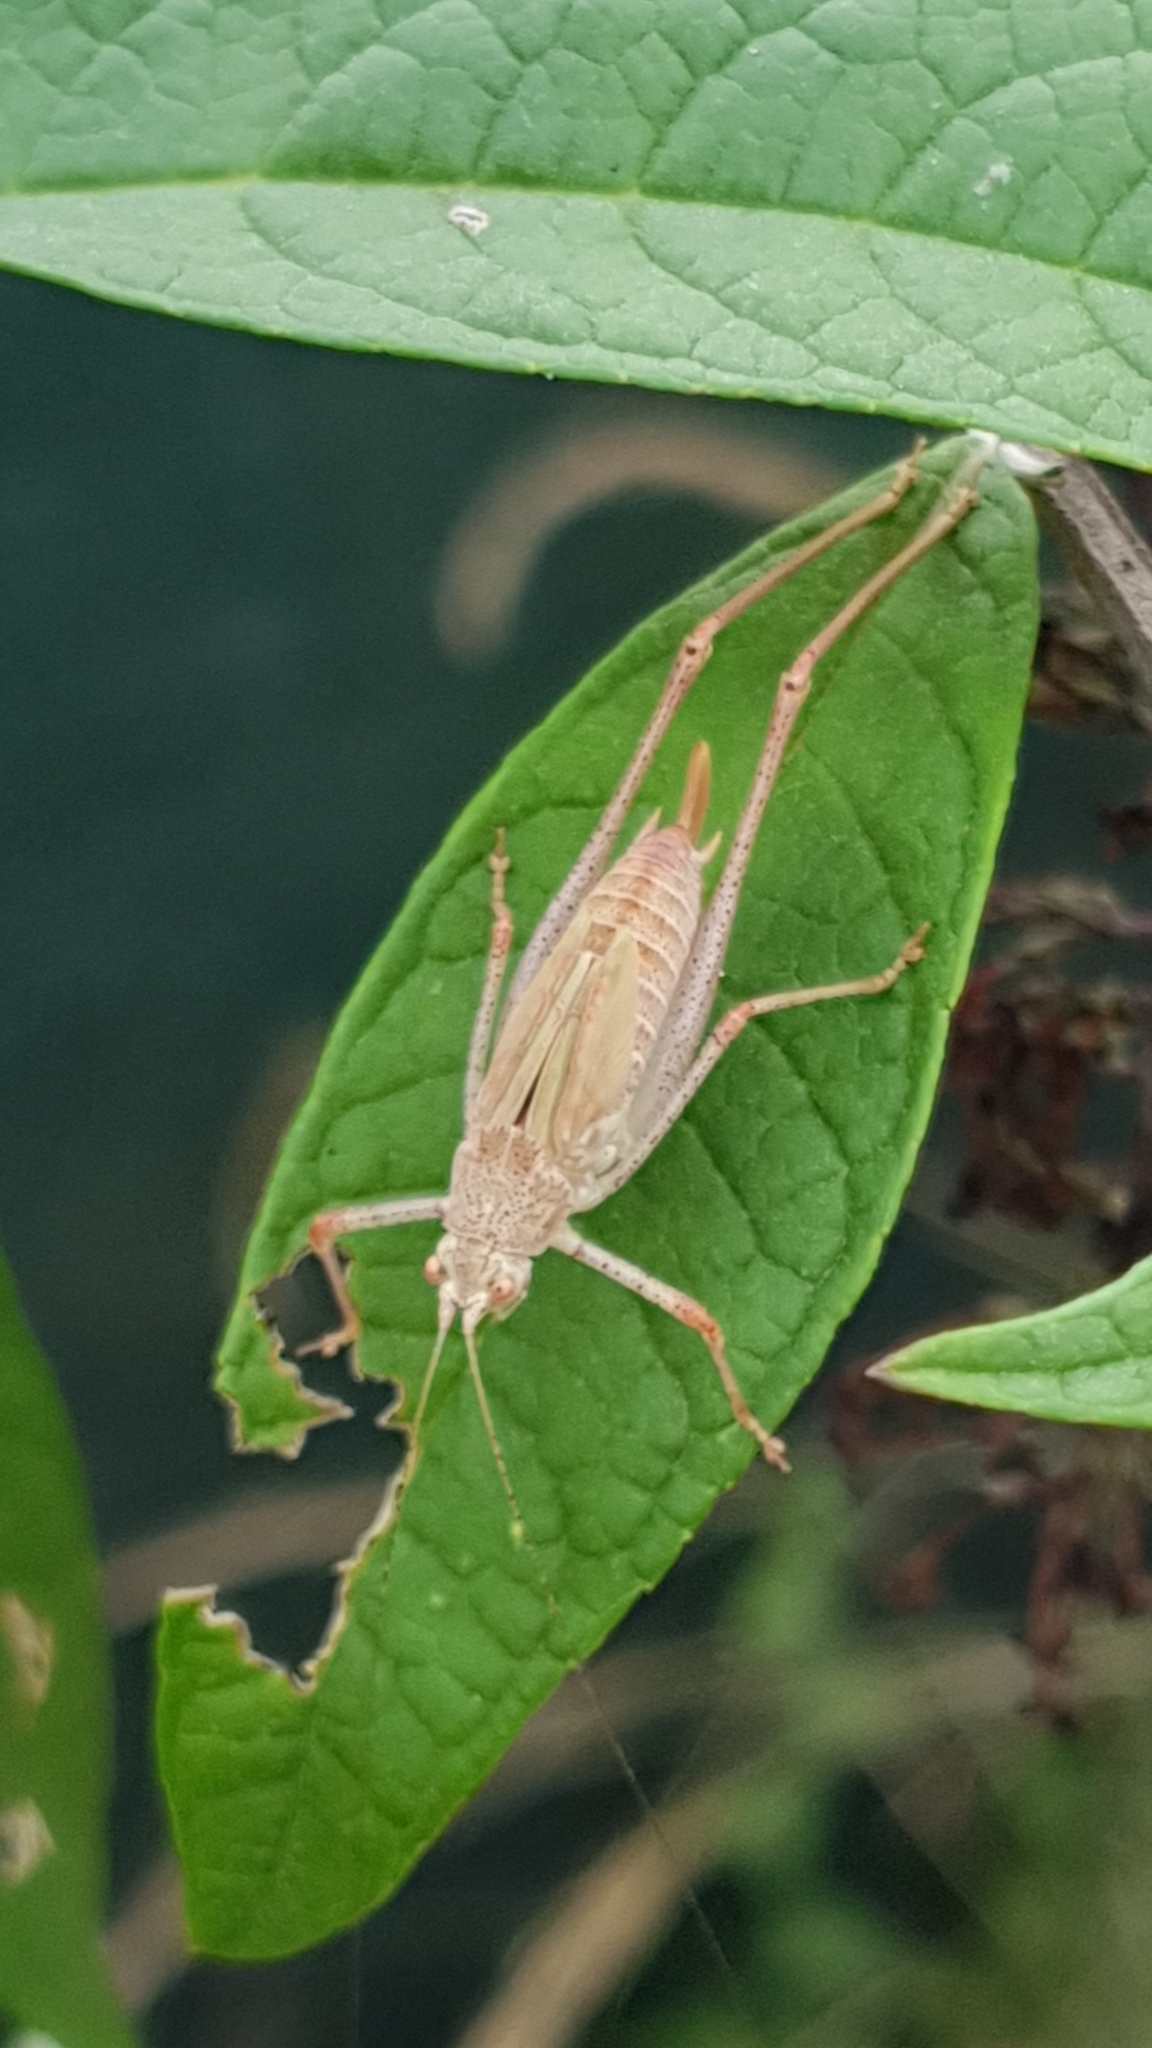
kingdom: Animalia
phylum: Arthropoda
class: Insecta
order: Orthoptera
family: Tettigoniidae
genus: Phaneroptera
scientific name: Phaneroptera nana
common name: Southern sickle bush-cricket
